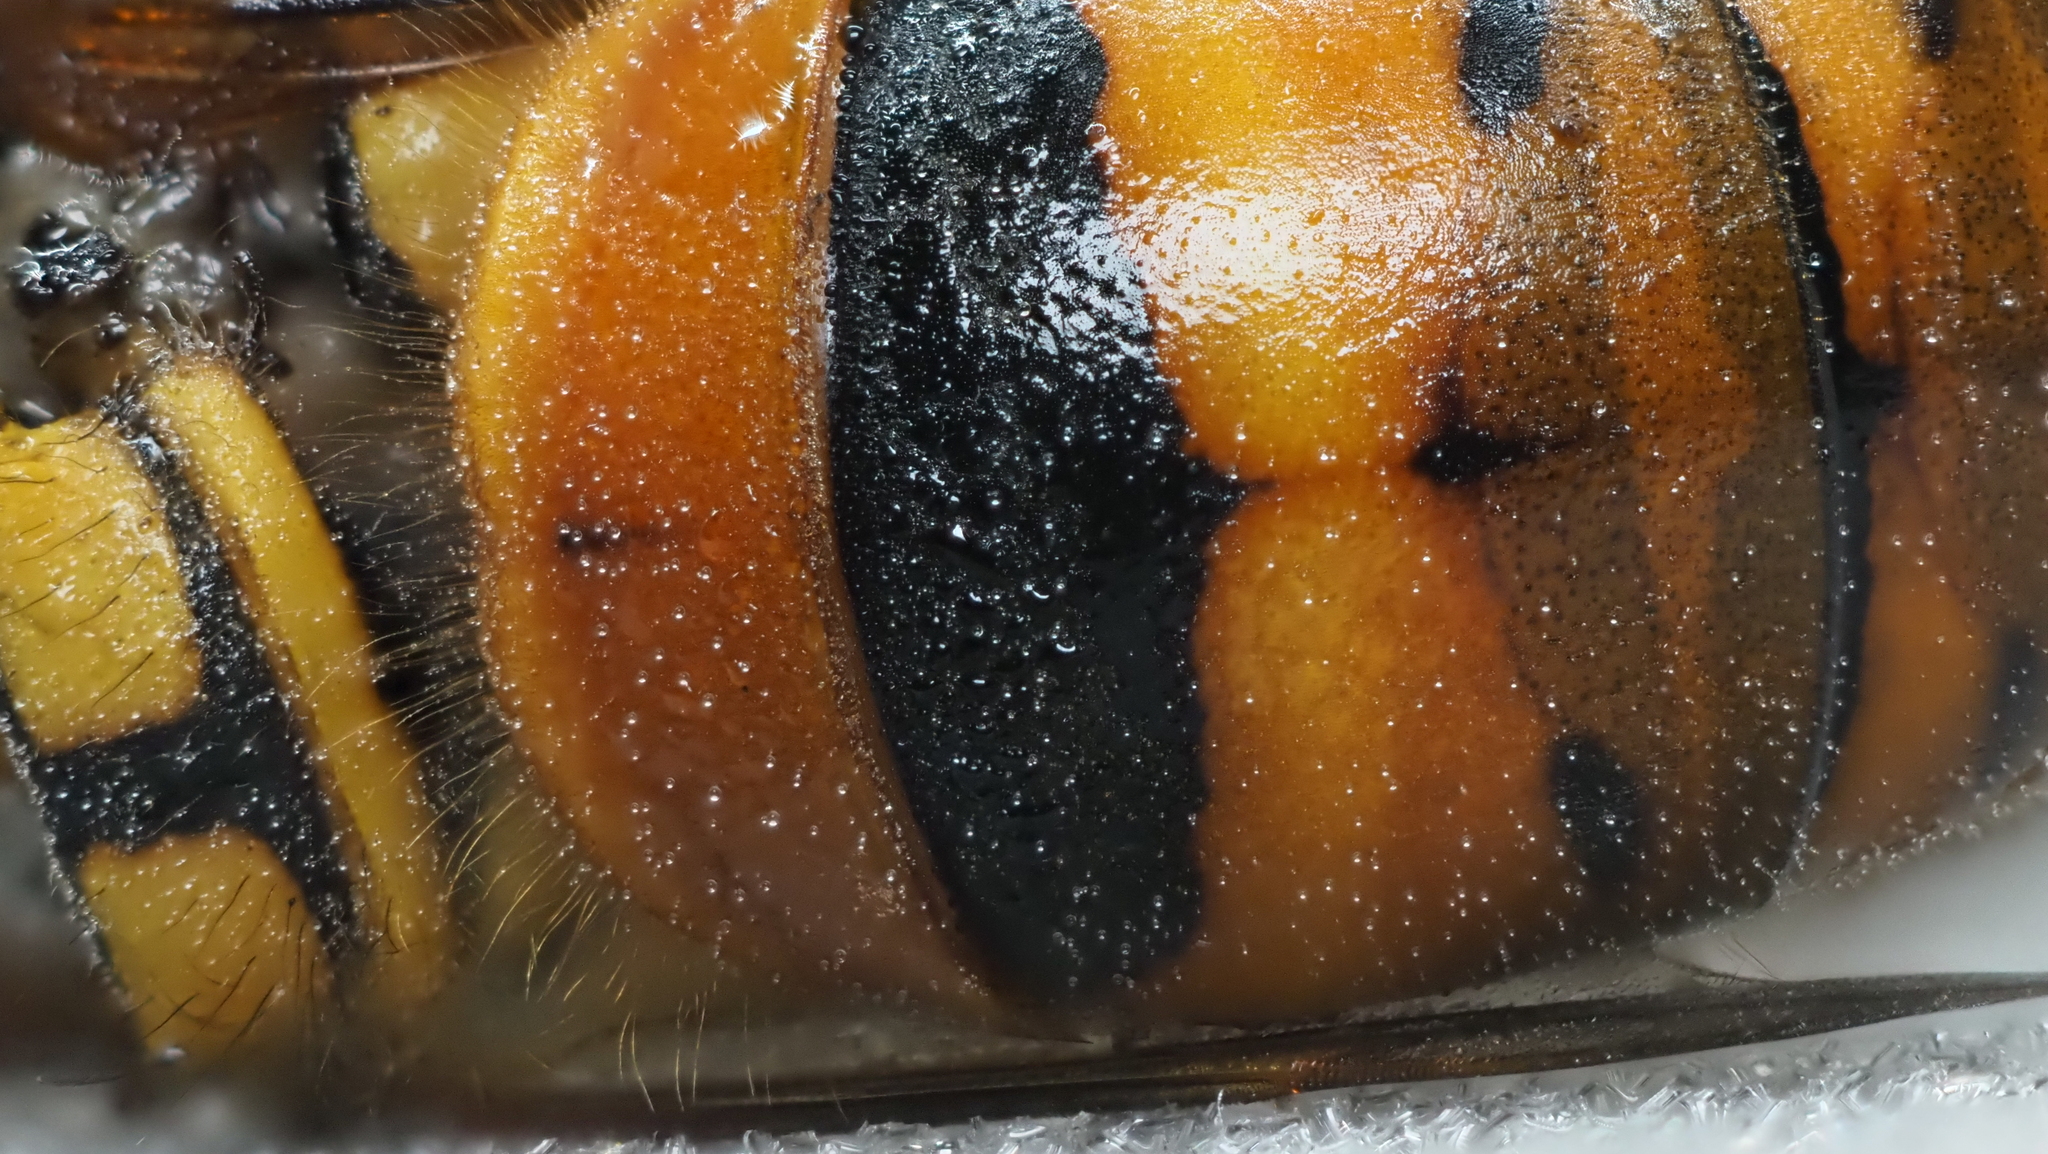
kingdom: Animalia
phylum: Arthropoda
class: Insecta
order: Hymenoptera
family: Vespidae
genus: Vespula
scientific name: Vespula squamosa
